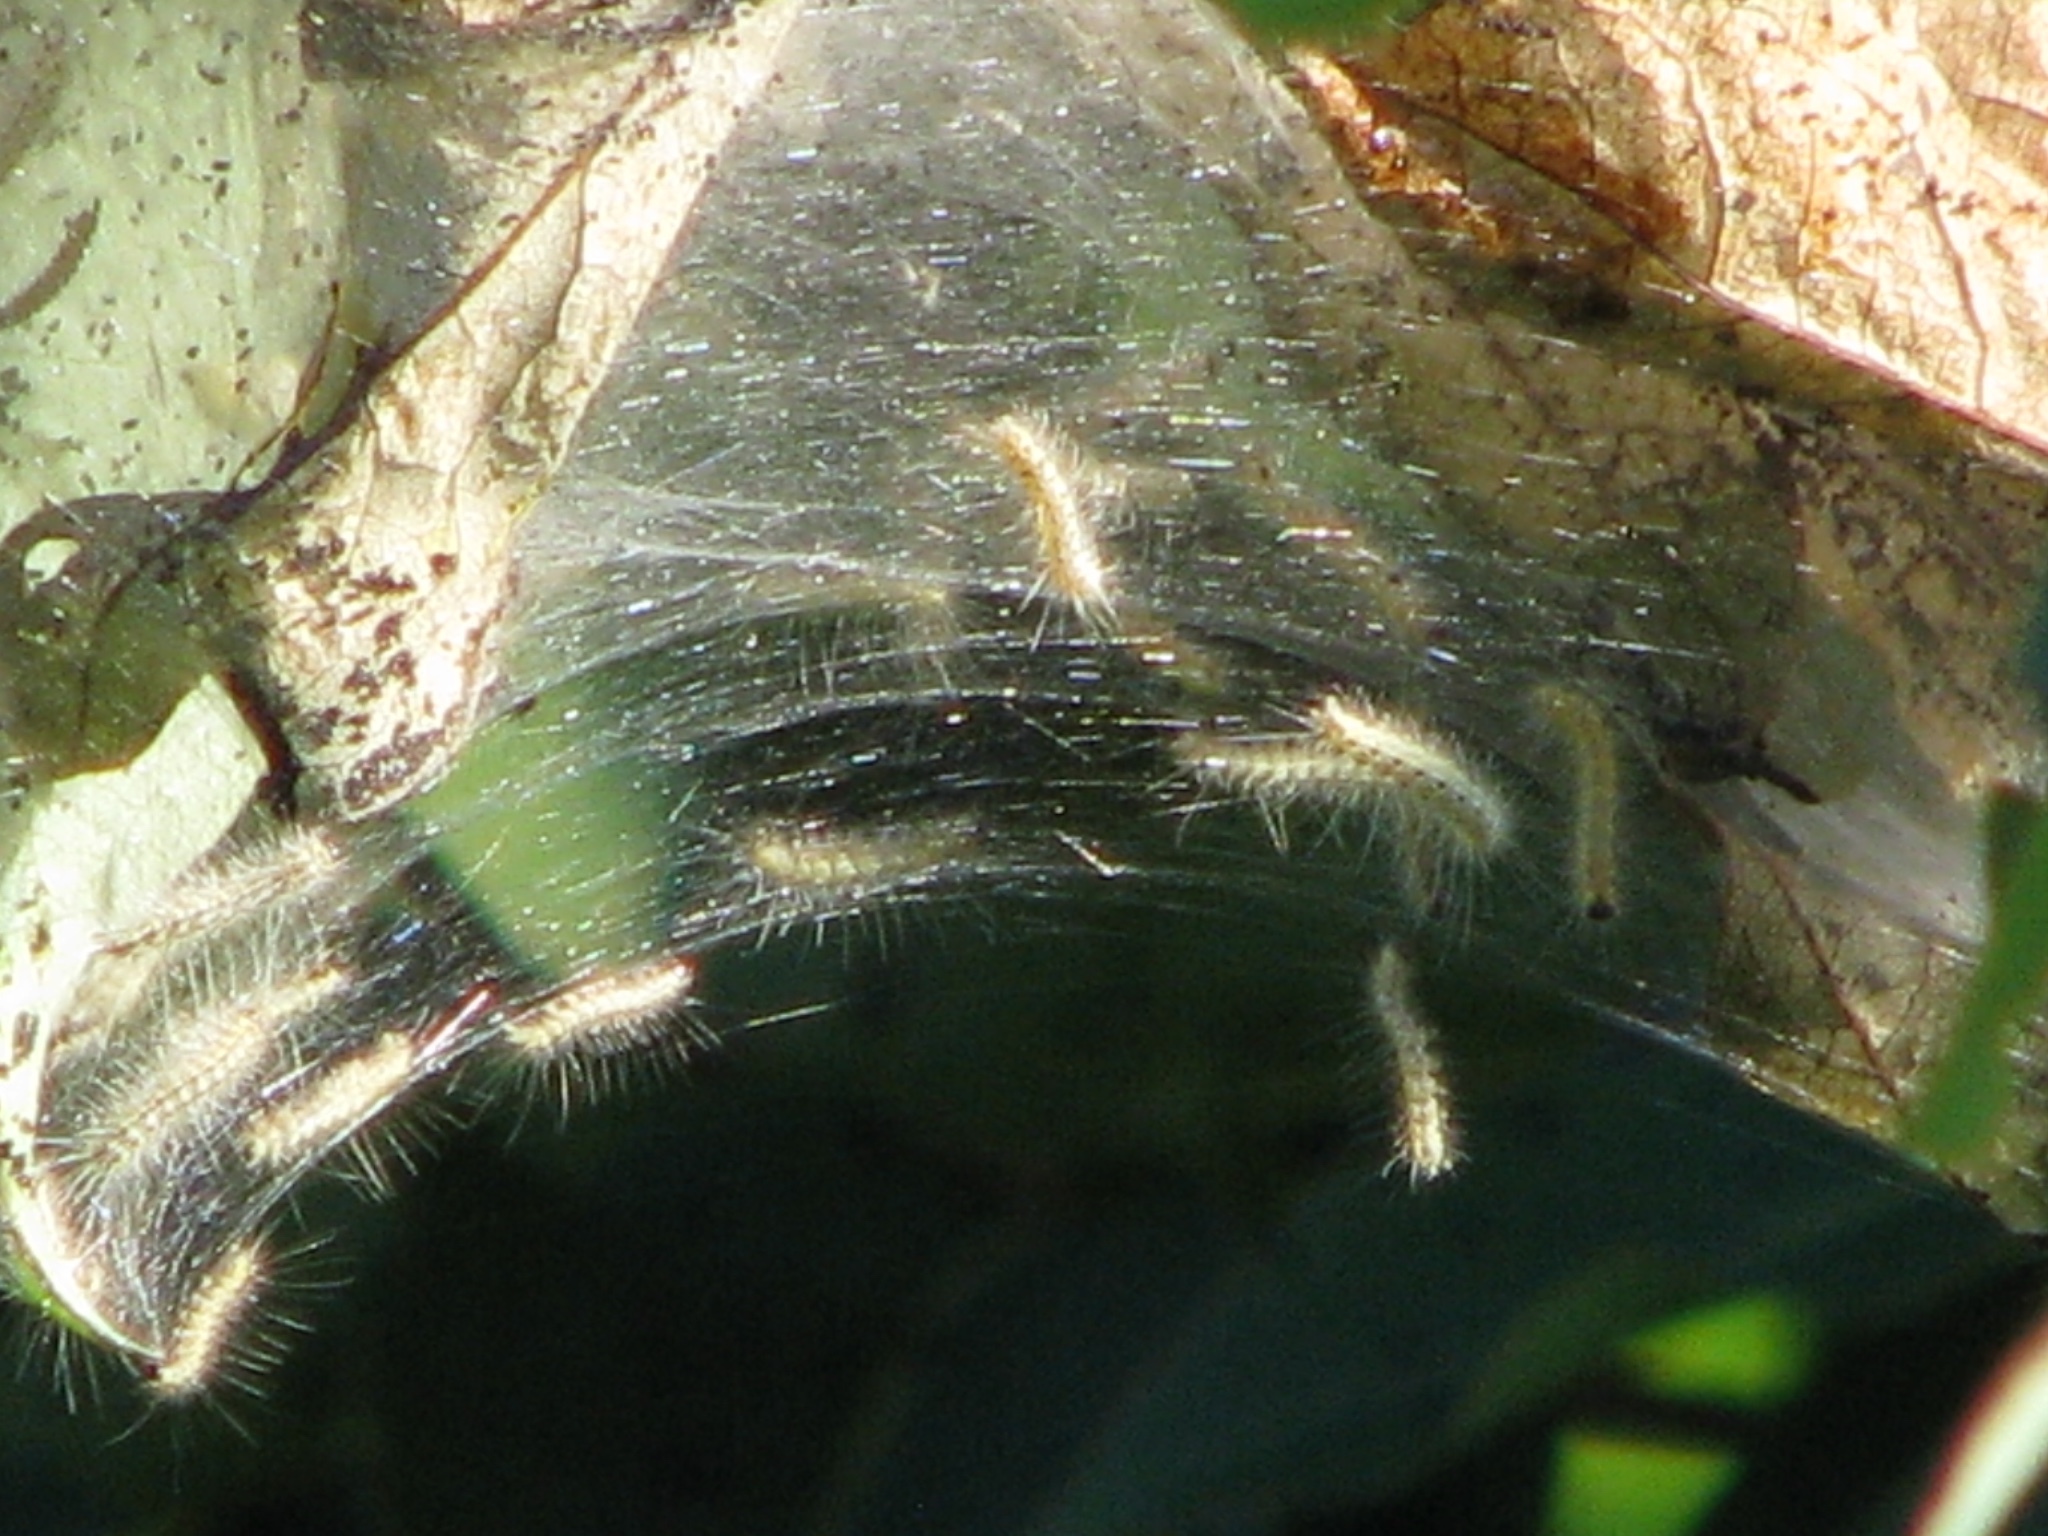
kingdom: Animalia
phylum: Arthropoda
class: Insecta
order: Lepidoptera
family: Erebidae
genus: Hyphantria
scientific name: Hyphantria cunea
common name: American white moth
